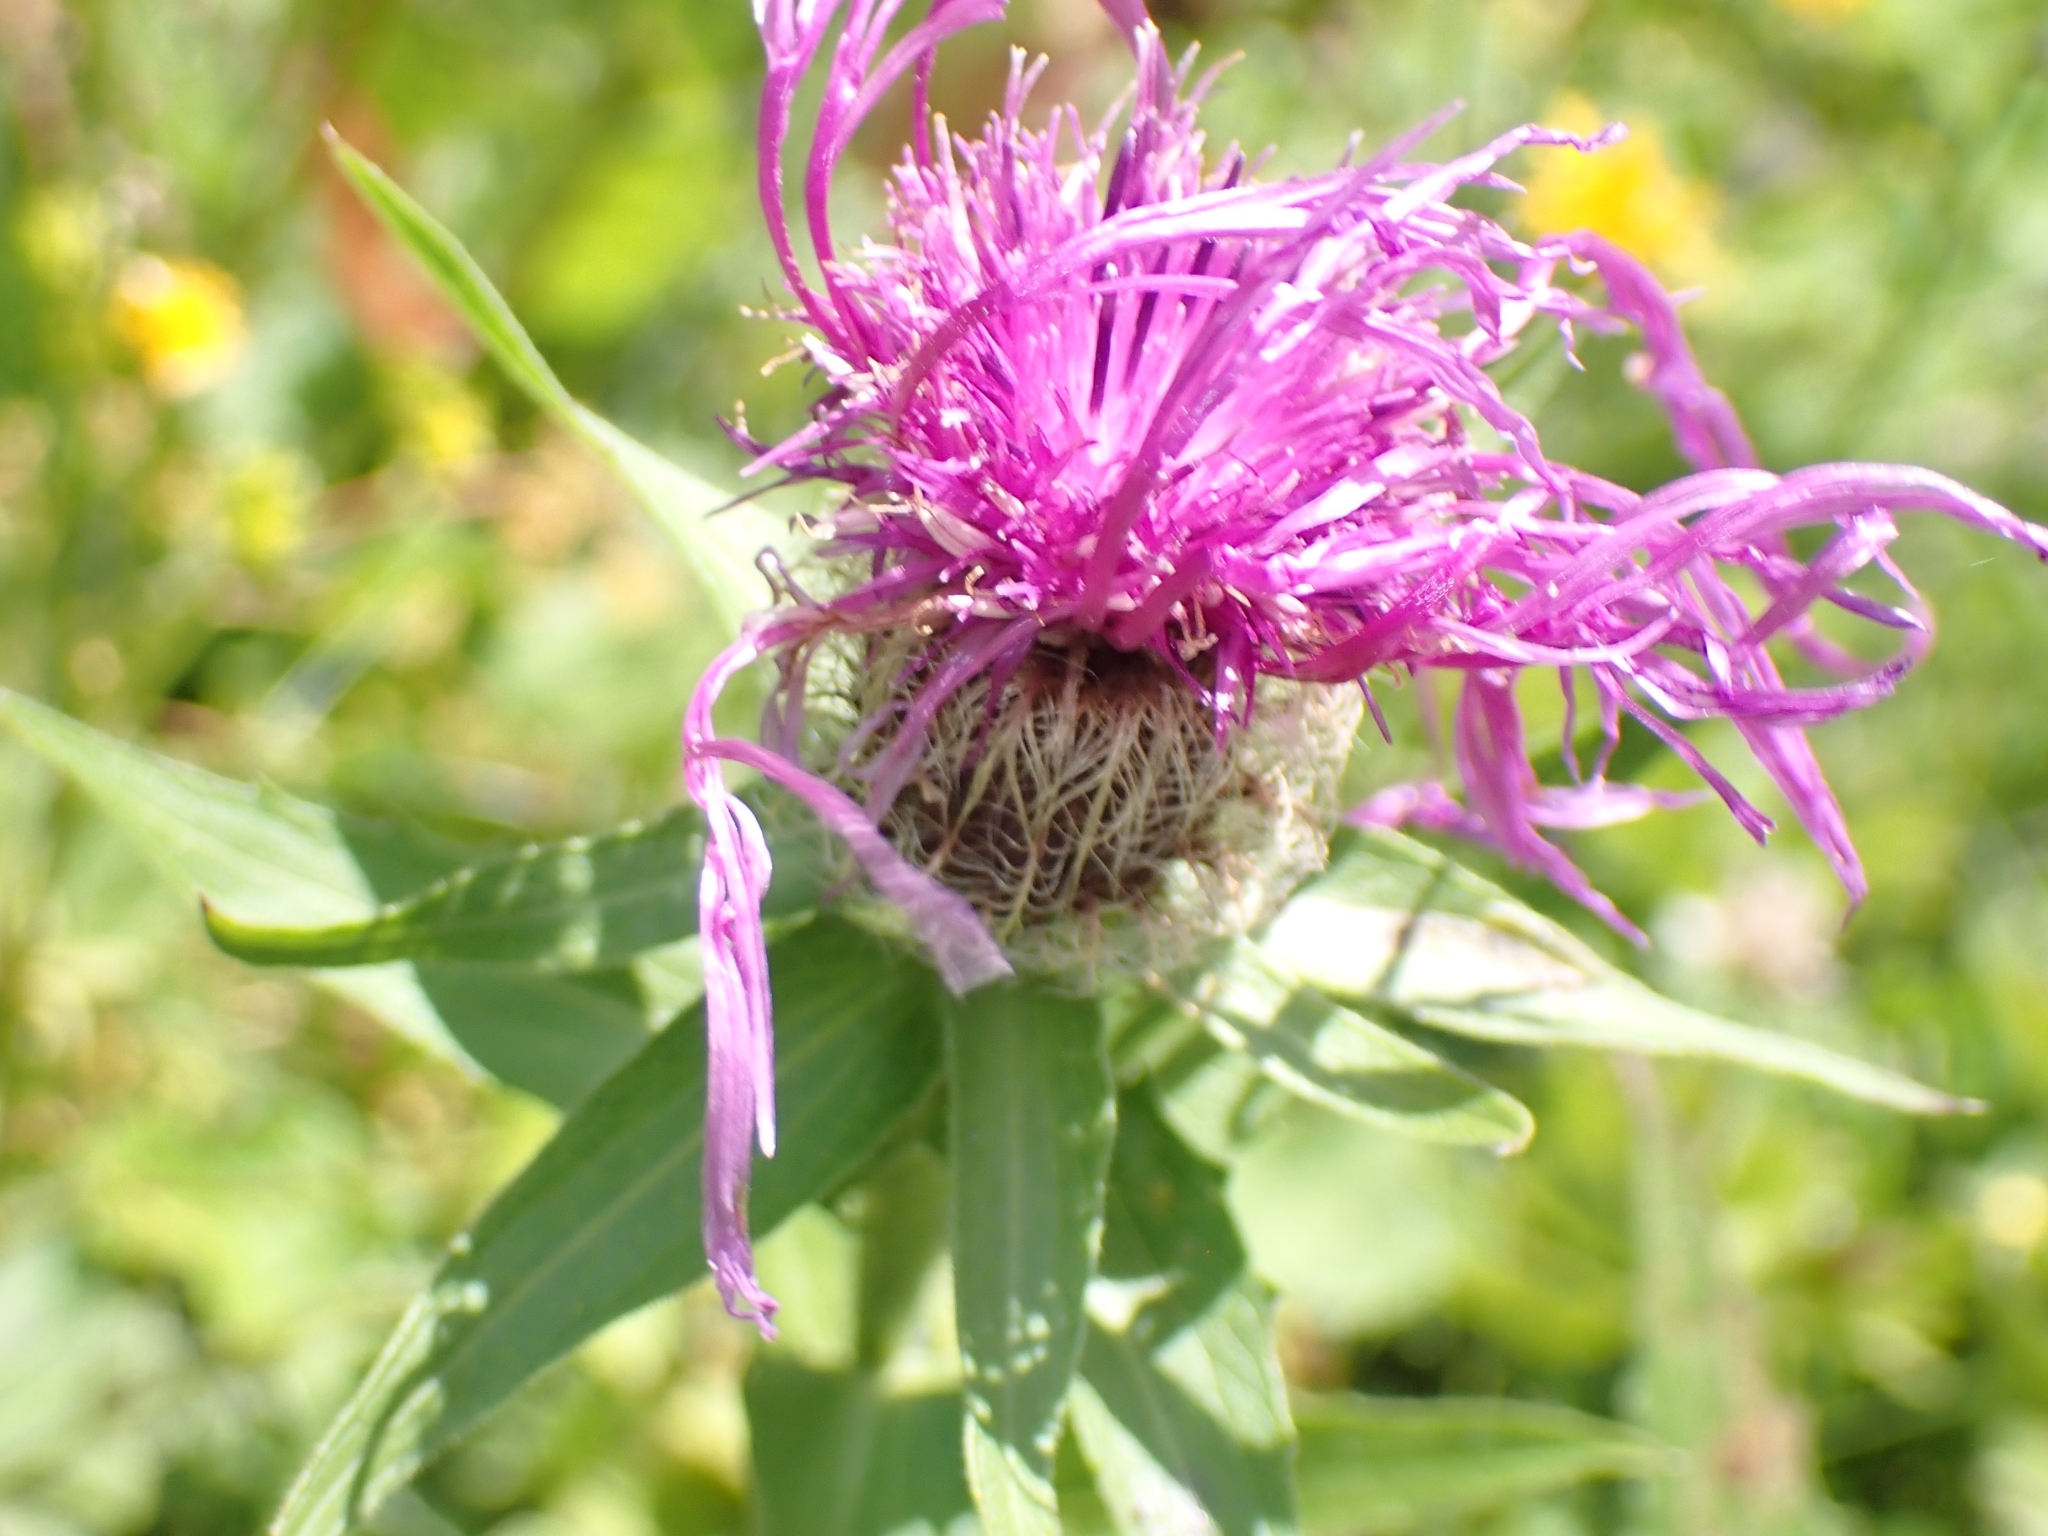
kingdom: Plantae
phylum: Tracheophyta
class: Magnoliopsida
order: Asterales
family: Asteraceae
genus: Centaurea
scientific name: Centaurea nervosa
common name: Singleflower knapweed
